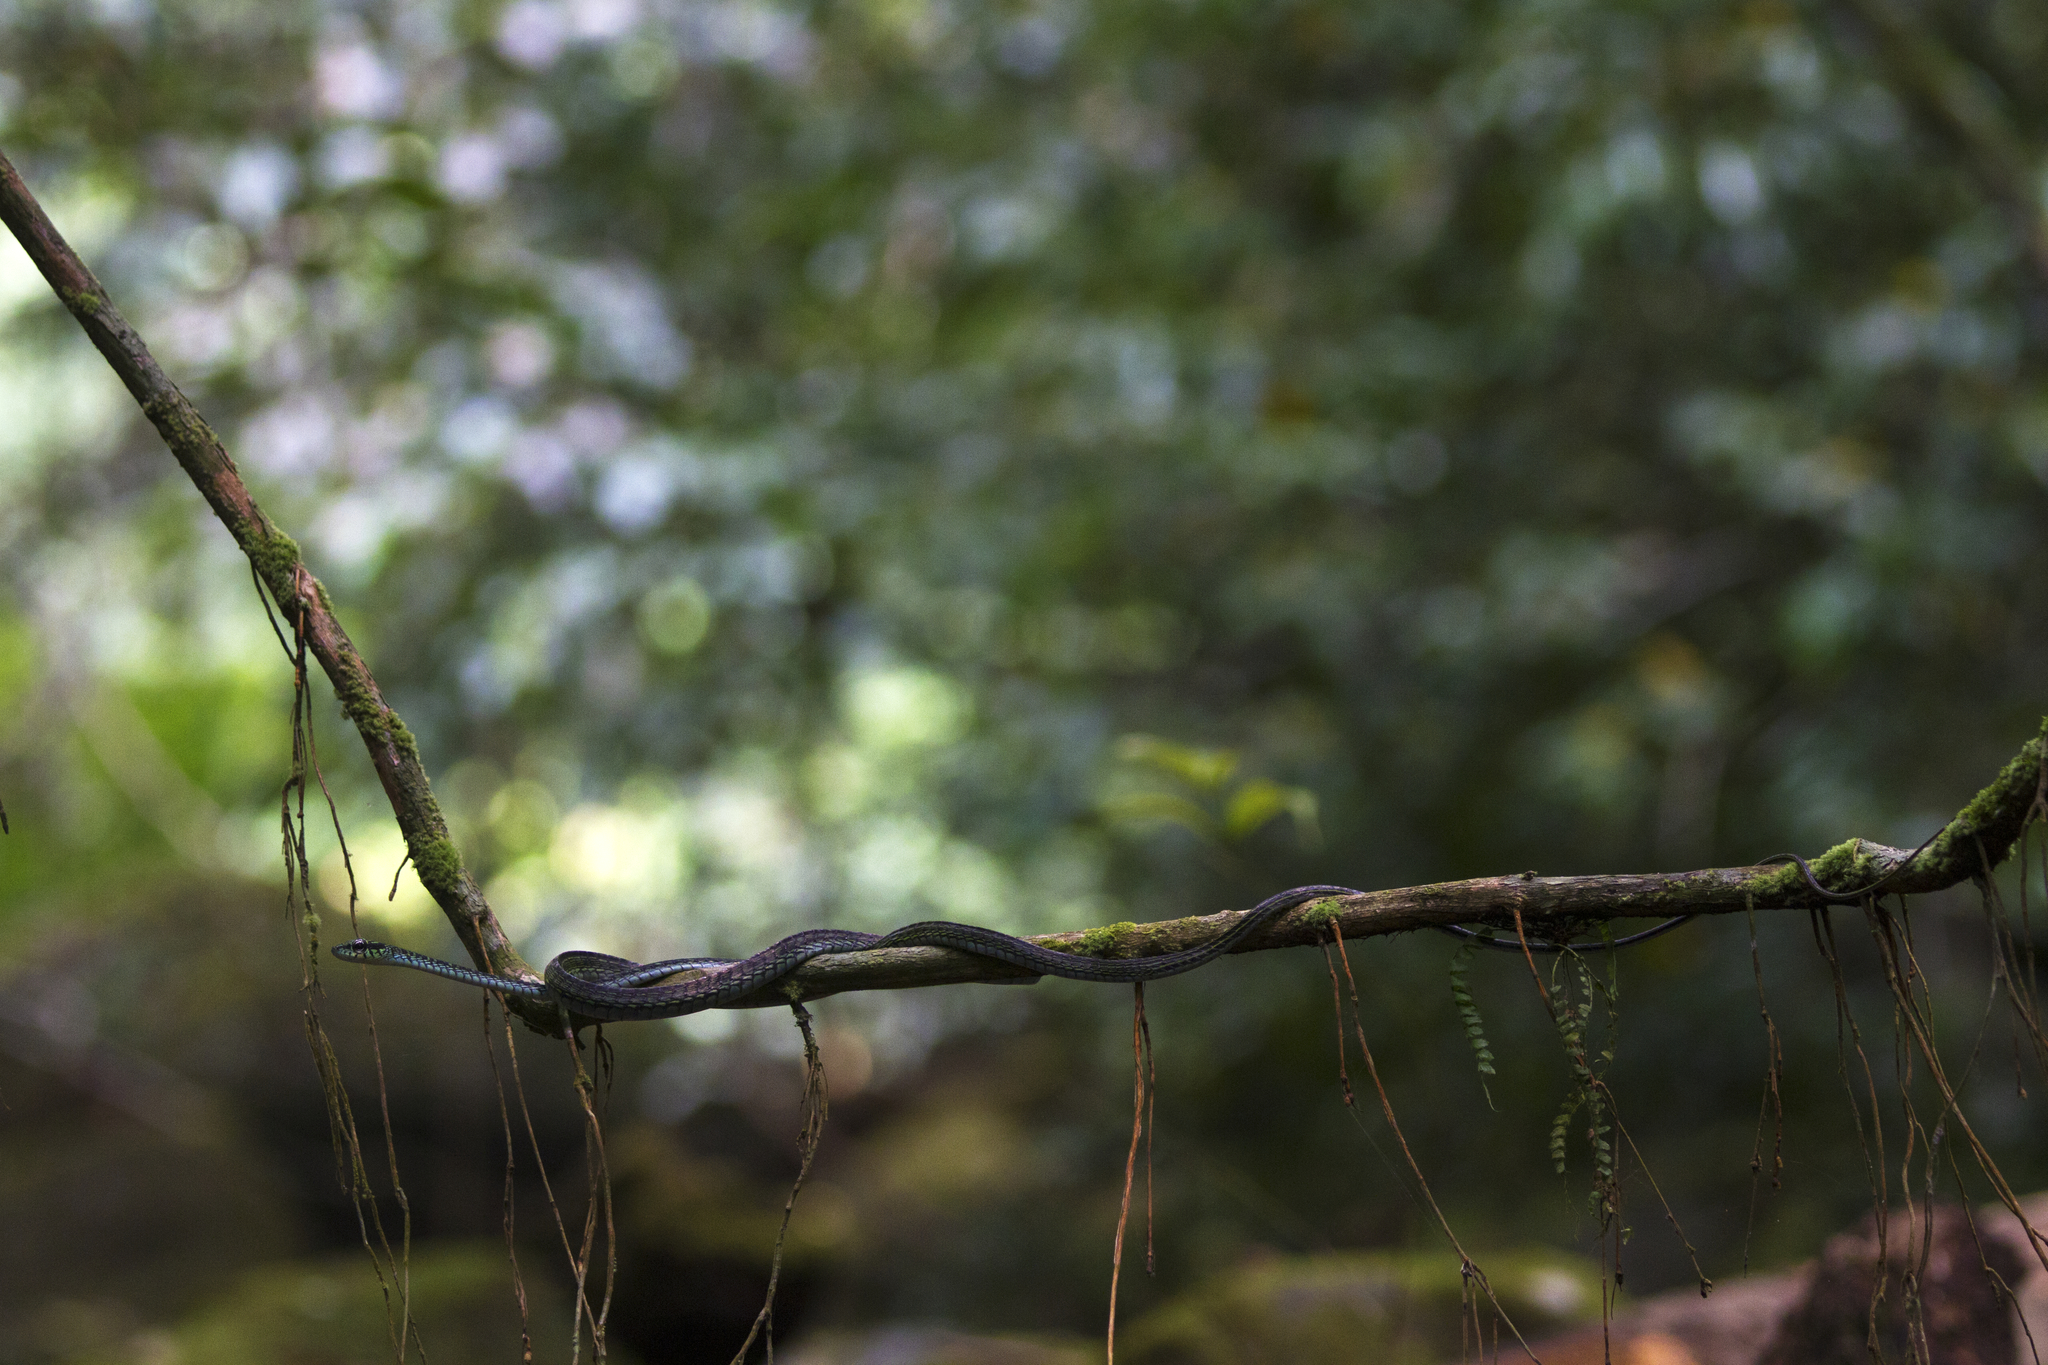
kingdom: Animalia
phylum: Chordata
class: Squamata
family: Colubridae
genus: Rhamnophis
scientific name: Rhamnophis aethiopissa
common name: Large-eyed green treesnake
